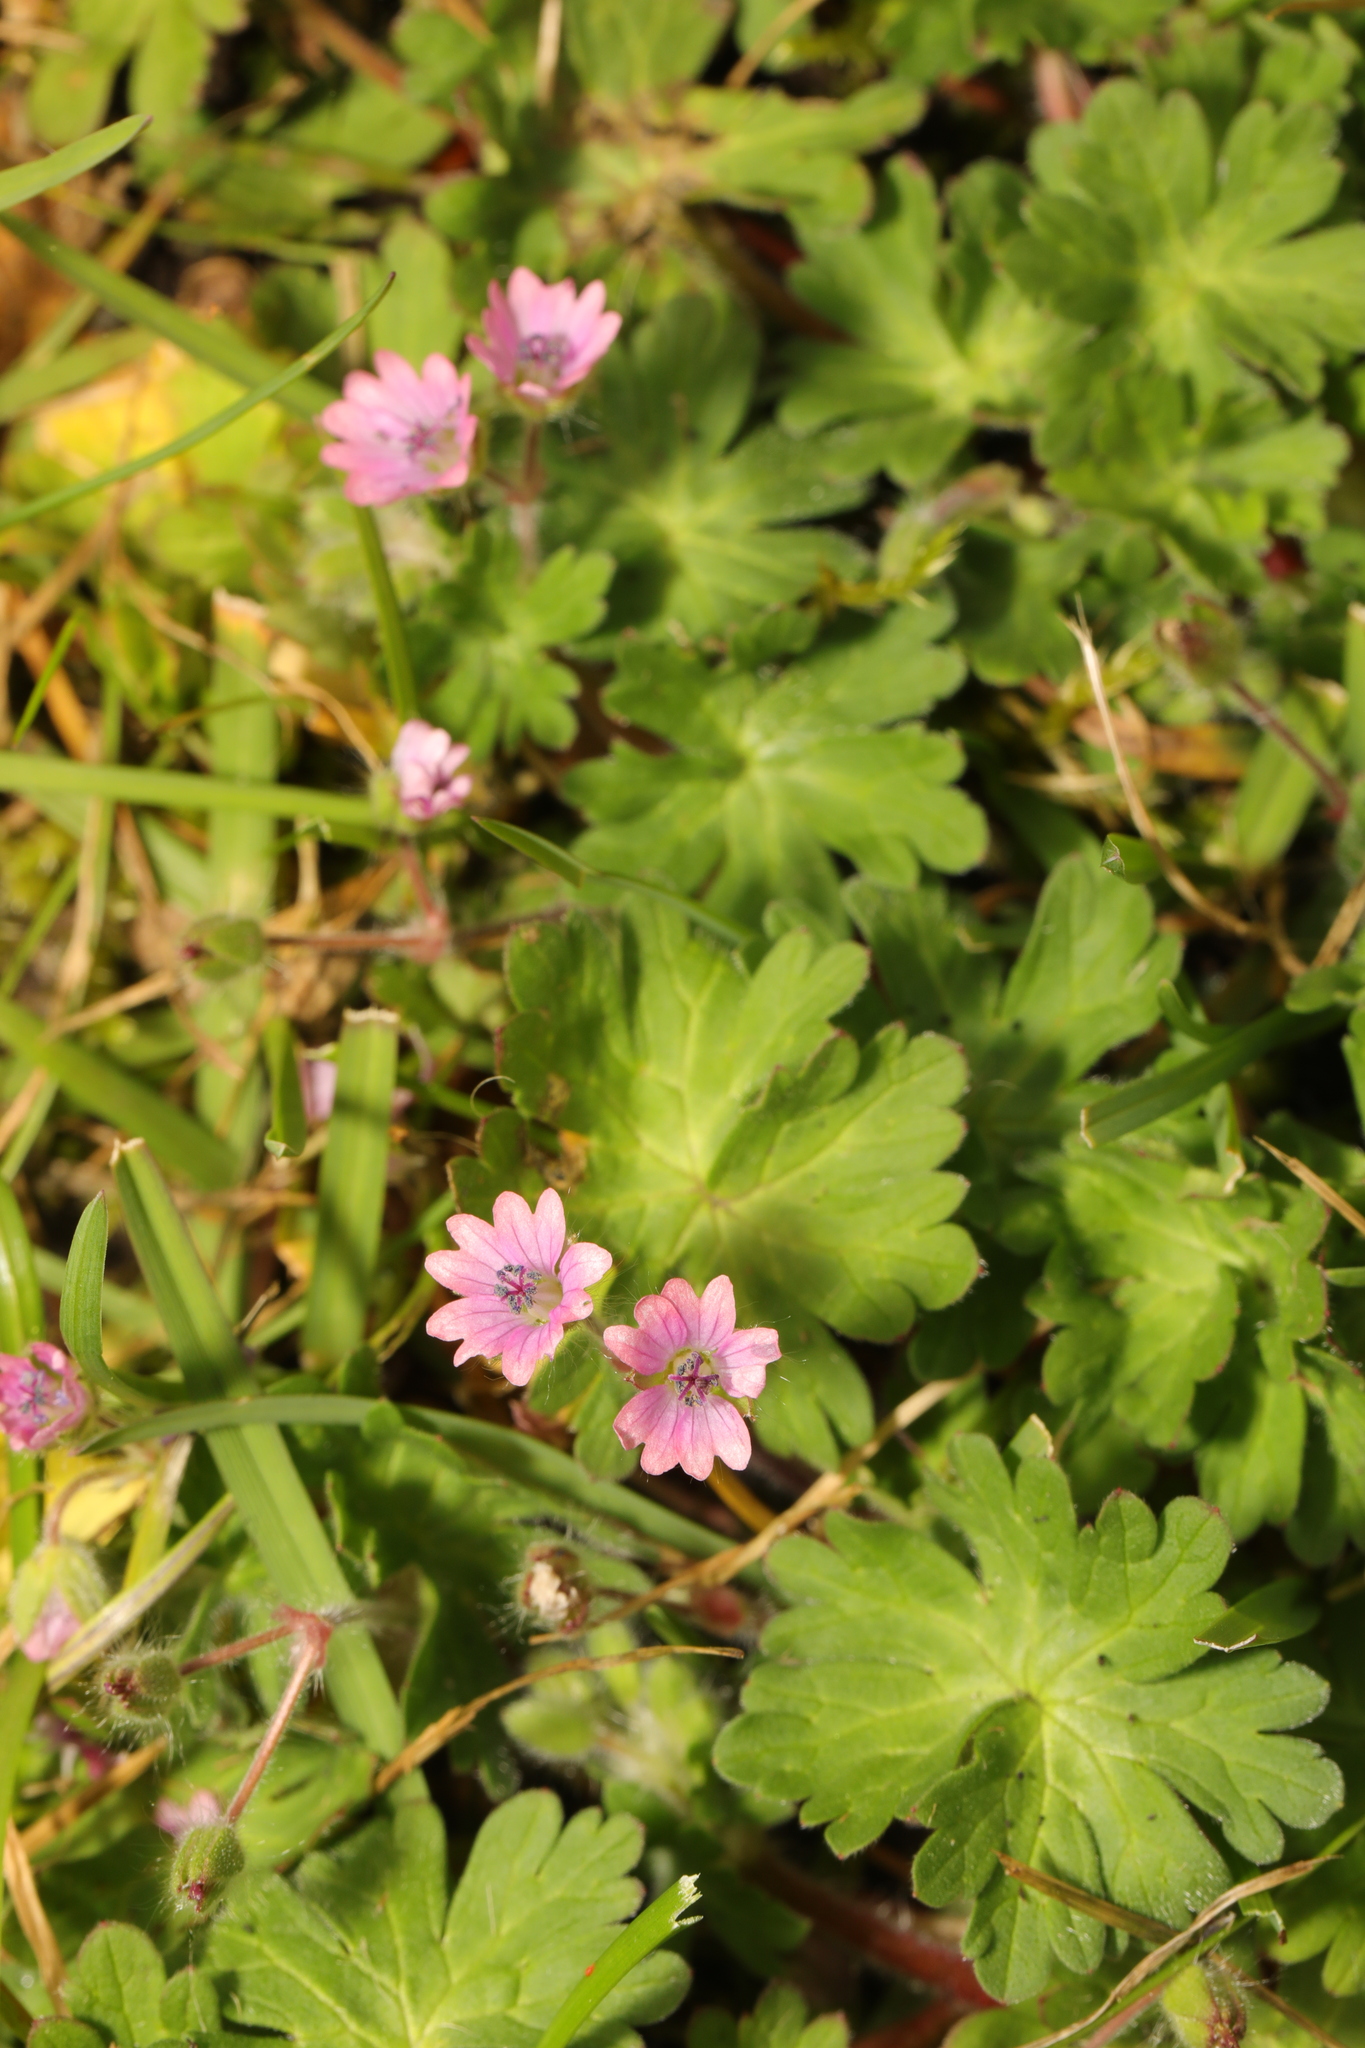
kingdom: Plantae
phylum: Tracheophyta
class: Magnoliopsida
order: Geraniales
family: Geraniaceae
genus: Geranium
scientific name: Geranium molle
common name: Dove's-foot crane's-bill
